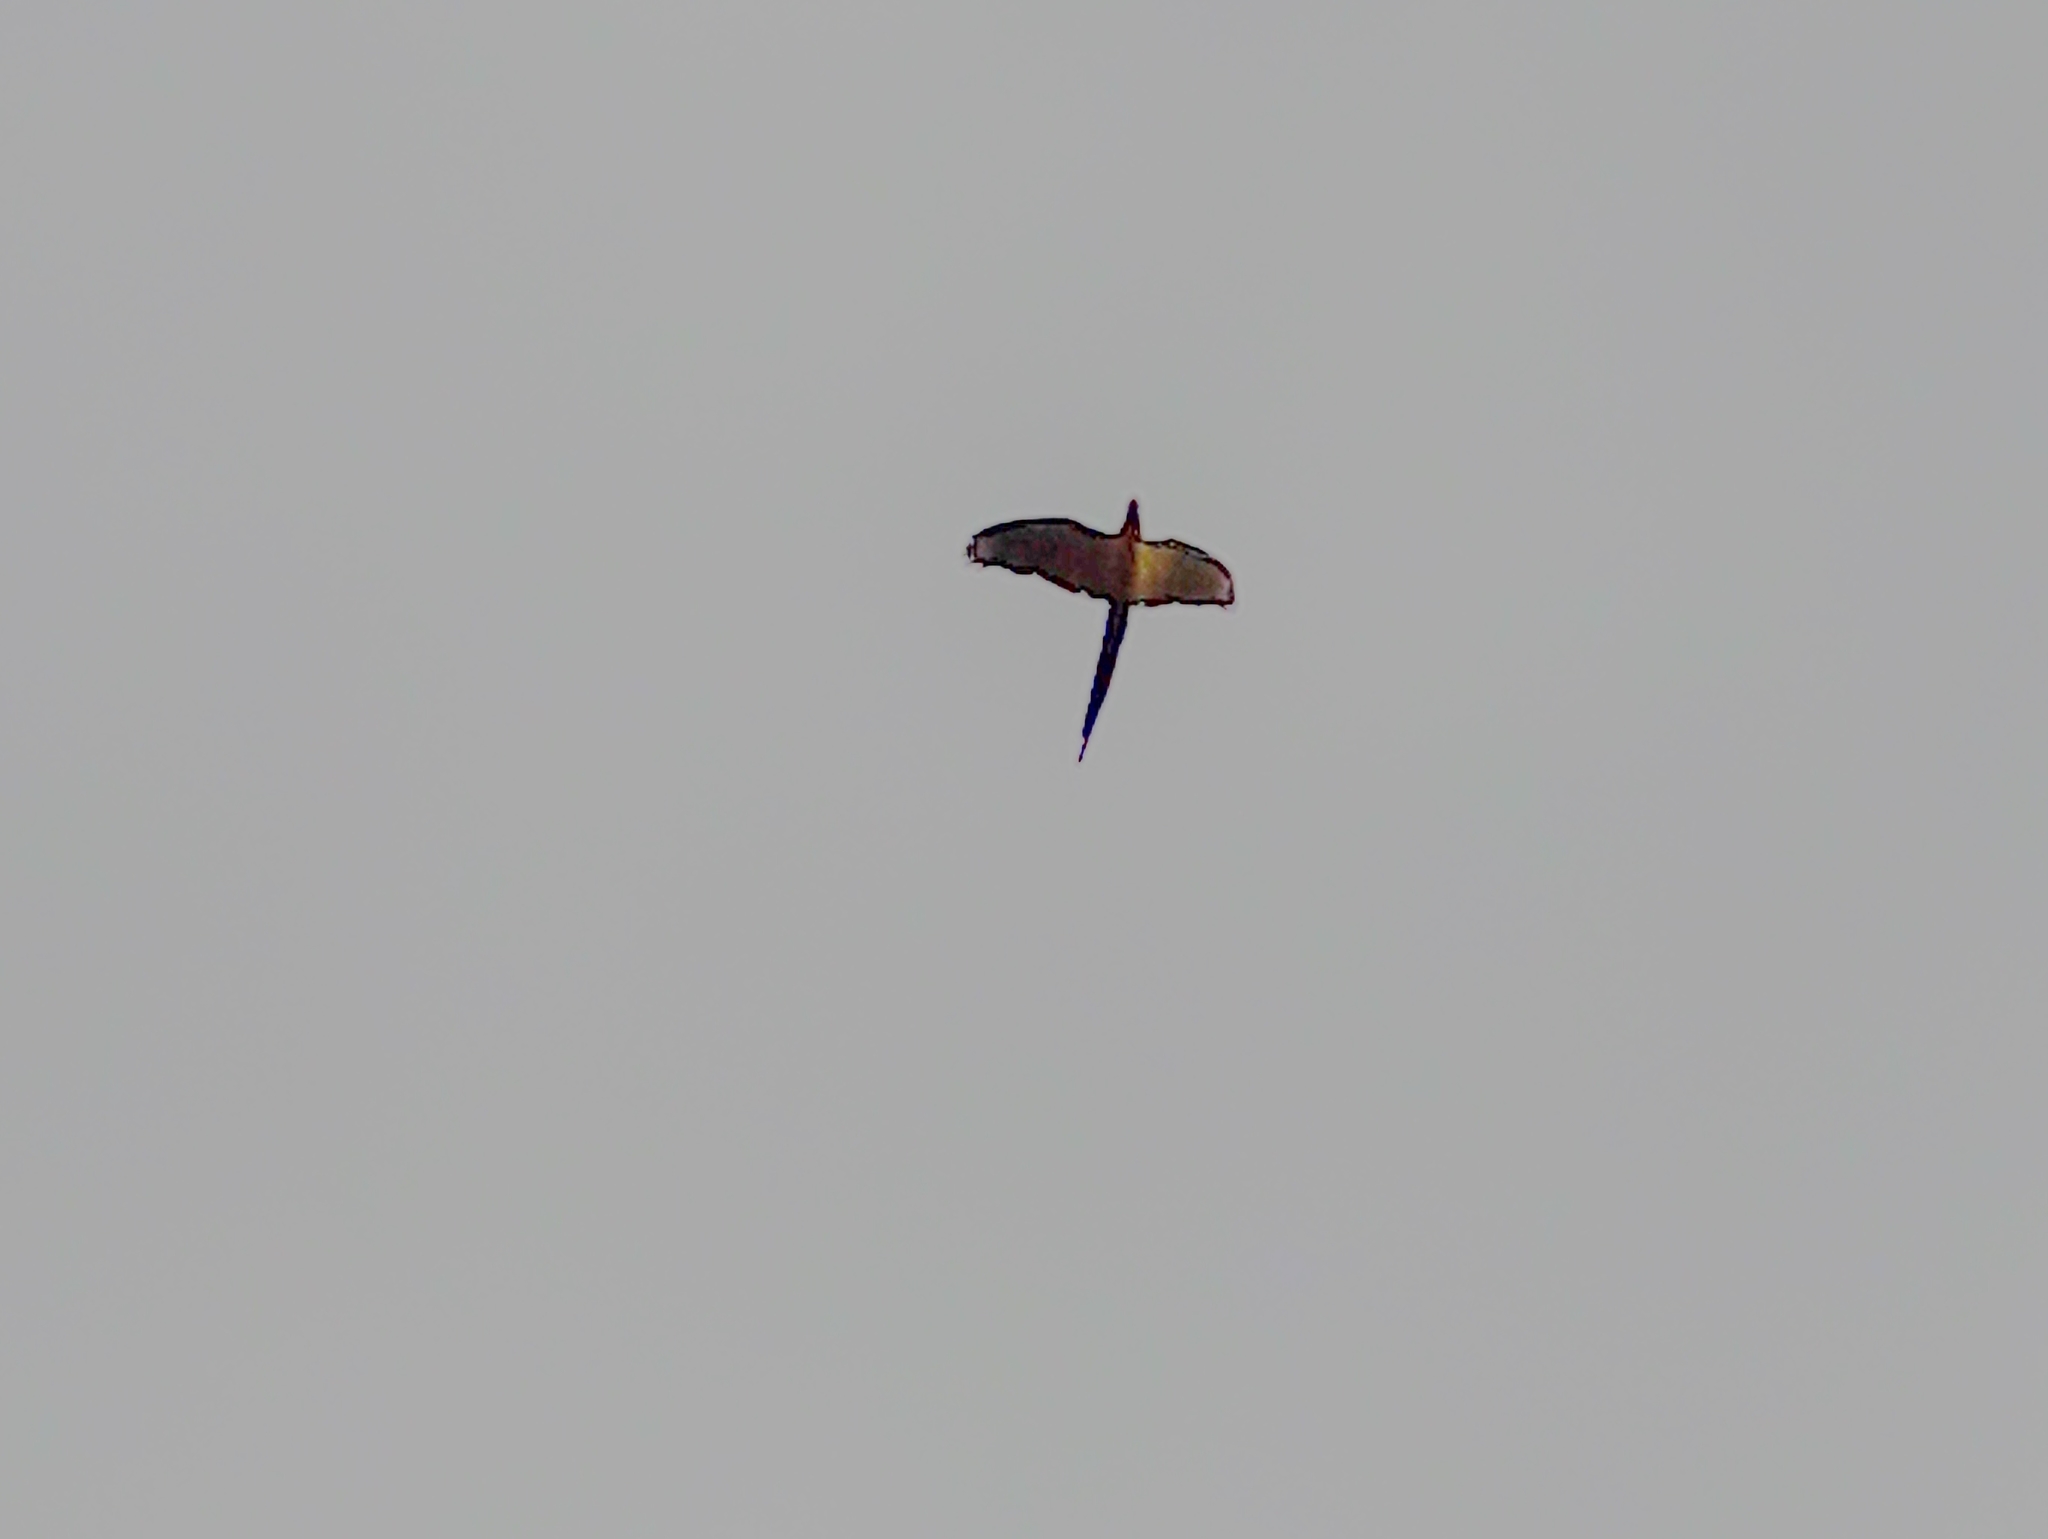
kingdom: Animalia
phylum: Chordata
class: Aves
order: Psittaciformes
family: Psittacidae
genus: Ara
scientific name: Ara ararauna
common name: Blue-and-yellow macaw
